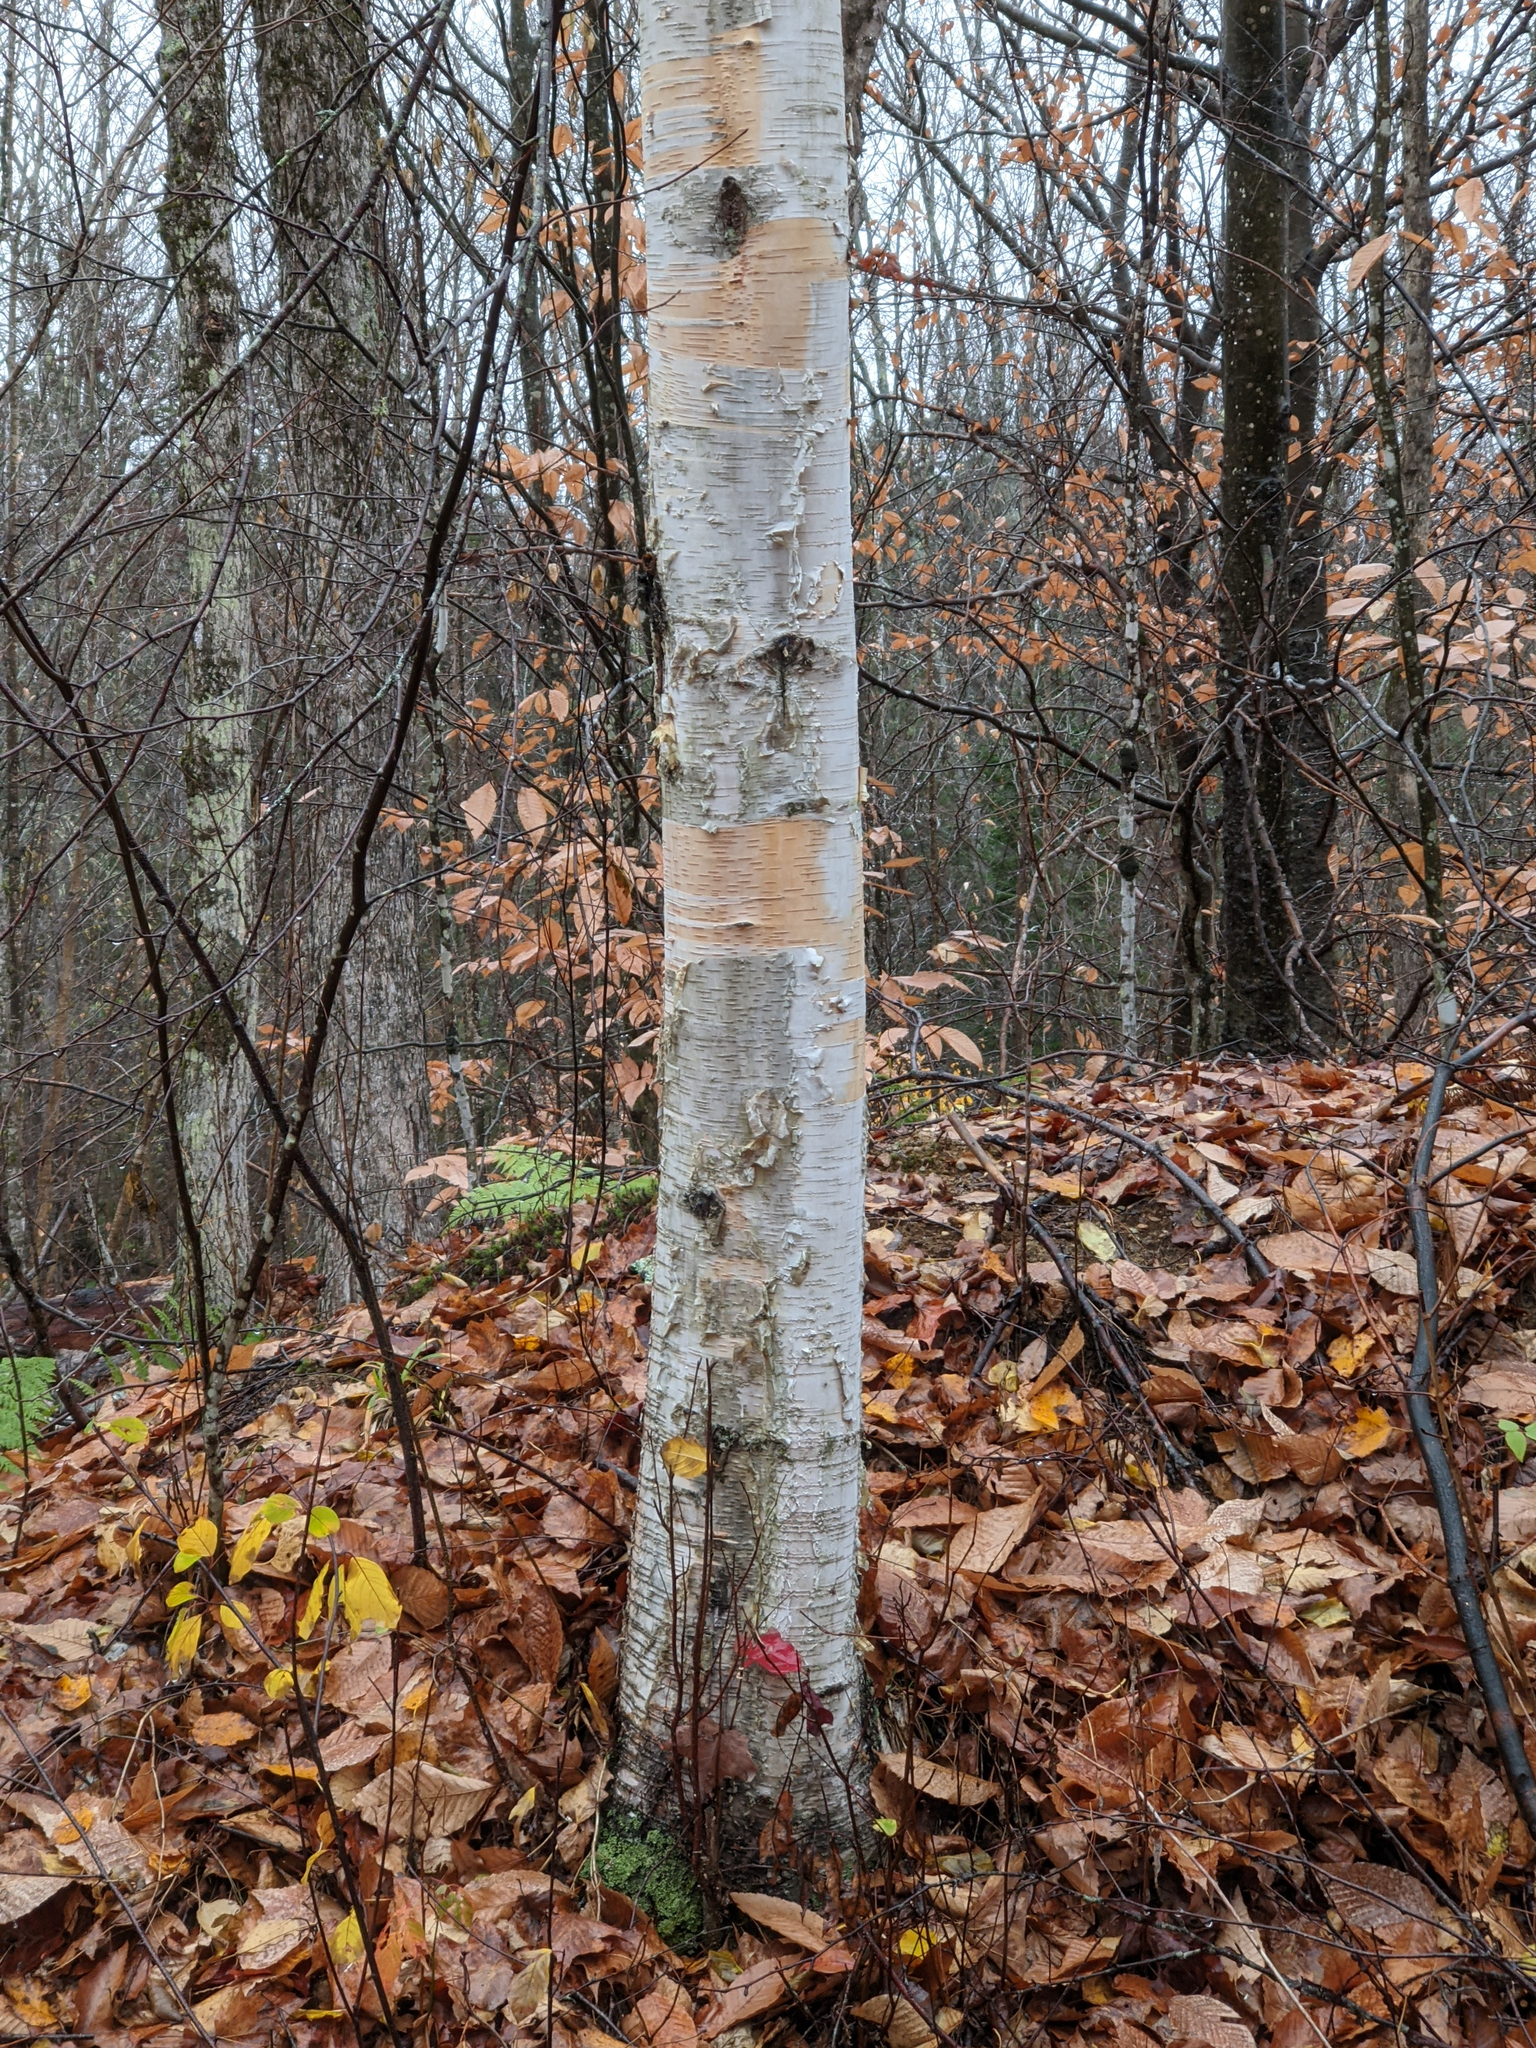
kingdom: Plantae
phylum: Tracheophyta
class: Magnoliopsida
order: Fagales
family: Betulaceae
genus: Betula
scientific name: Betula papyrifera
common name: Paper birch
